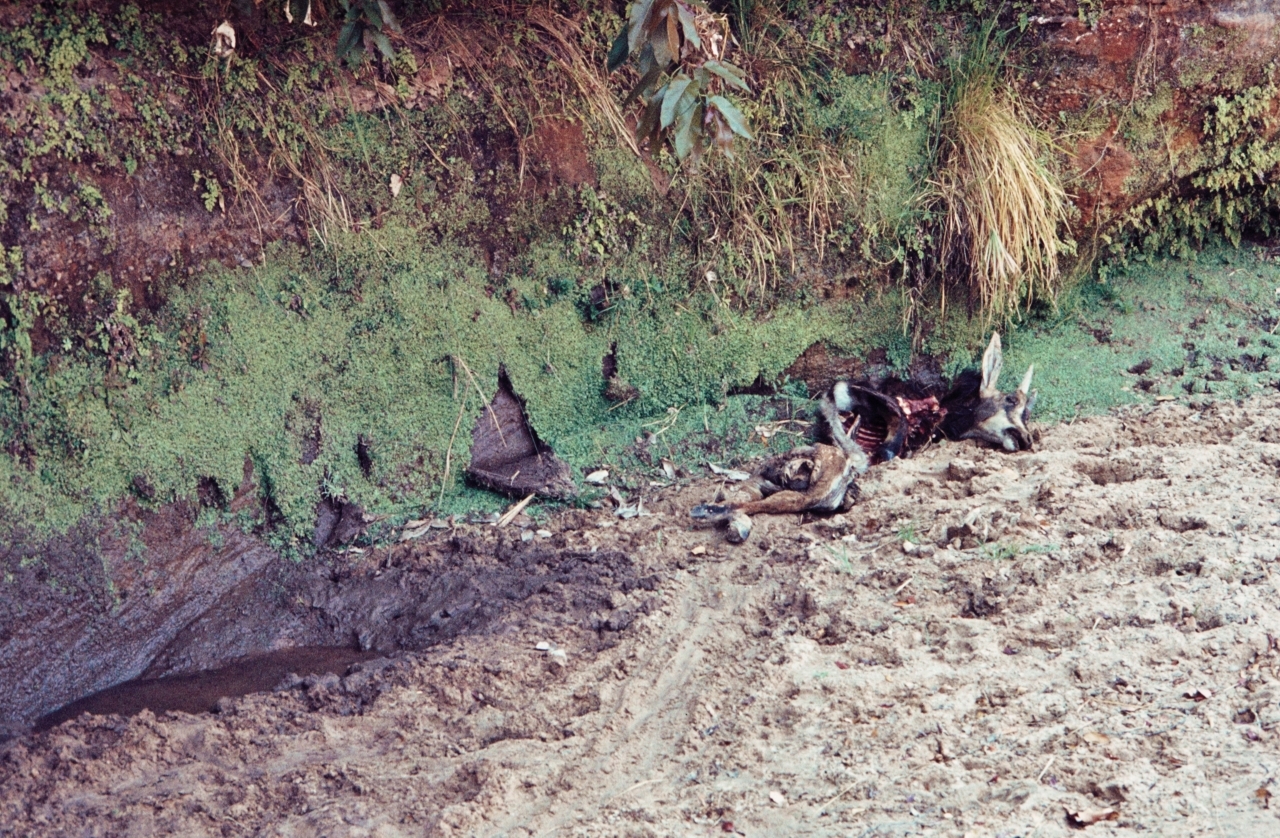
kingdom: Animalia
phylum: Chordata
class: Mammalia
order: Artiodactyla
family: Bovidae
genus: Hippotragus
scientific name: Hippotragus niger
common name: Sable antelope
